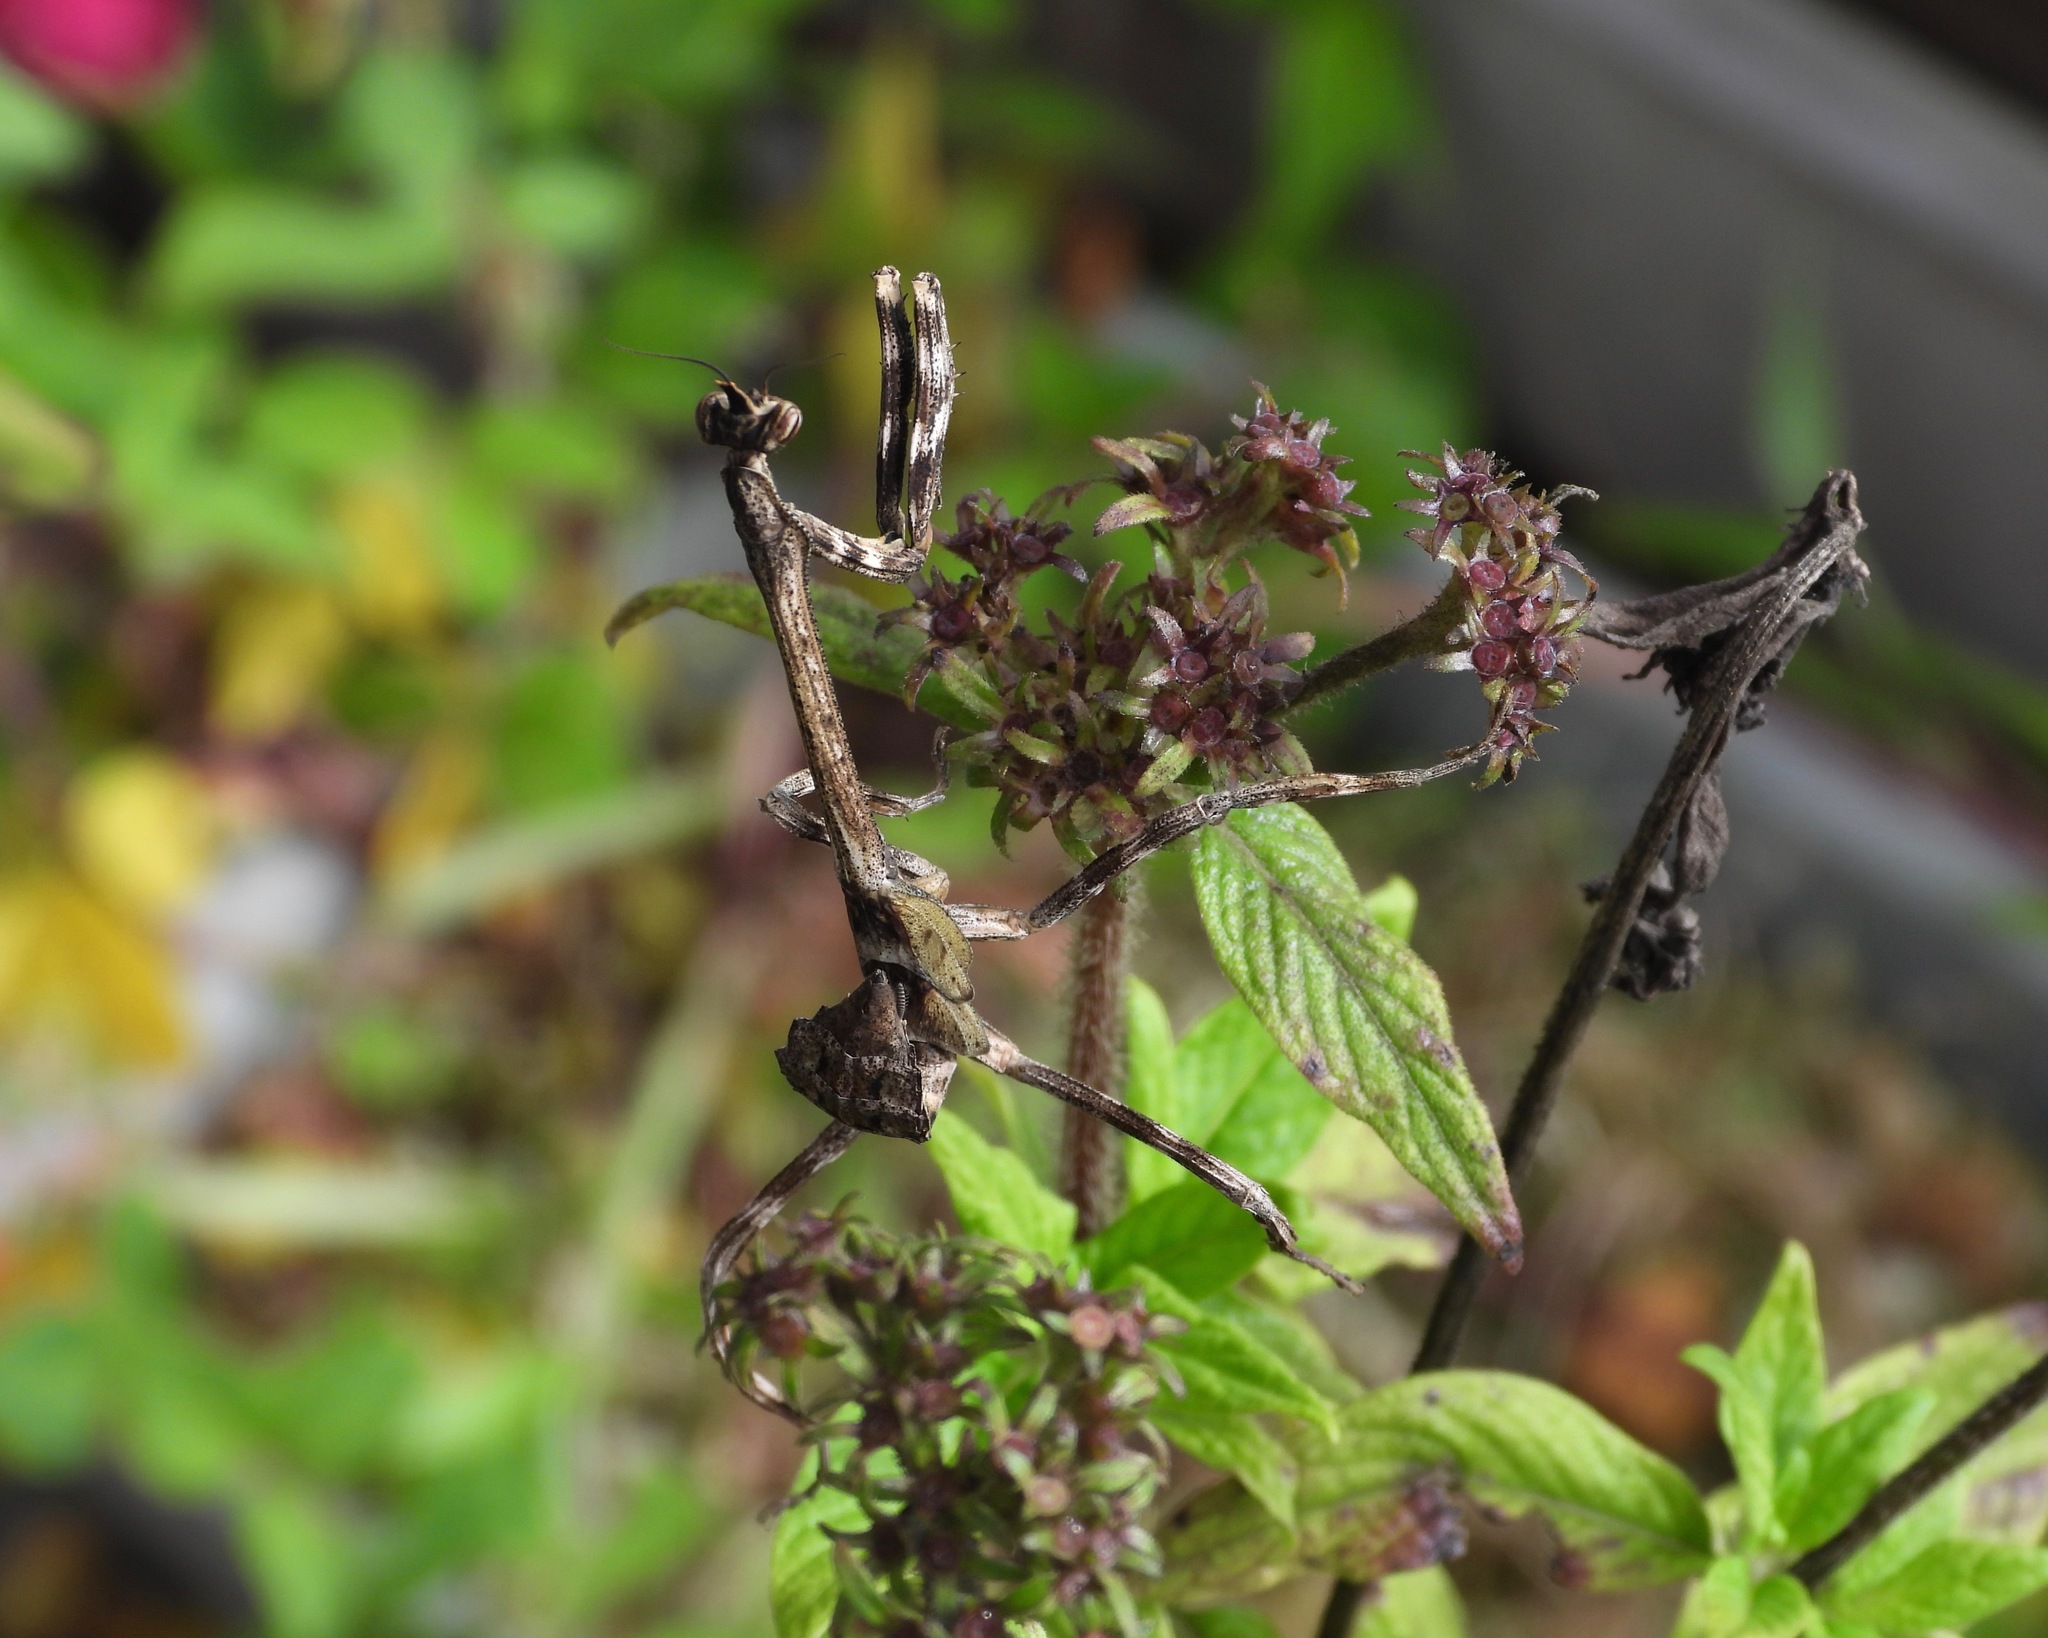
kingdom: Animalia
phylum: Arthropoda
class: Insecta
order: Mantodea
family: Mantidae
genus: Pseudovates
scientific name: Pseudovates chlorophaea
